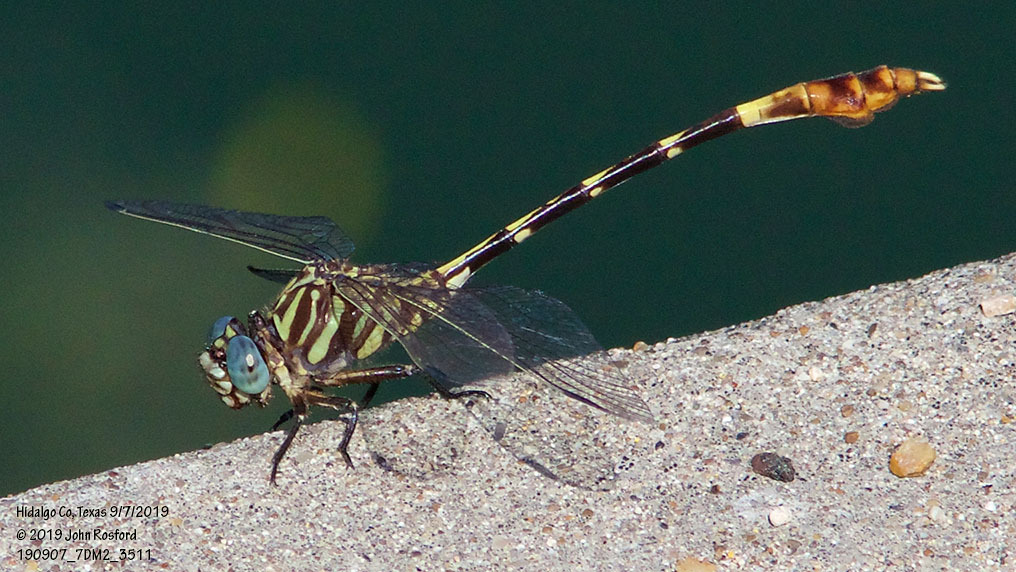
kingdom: Animalia
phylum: Arthropoda
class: Insecta
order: Odonata
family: Gomphidae
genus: Phyllogomphoides
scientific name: Phyllogomphoides albrighti
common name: Five-striped leaftail
